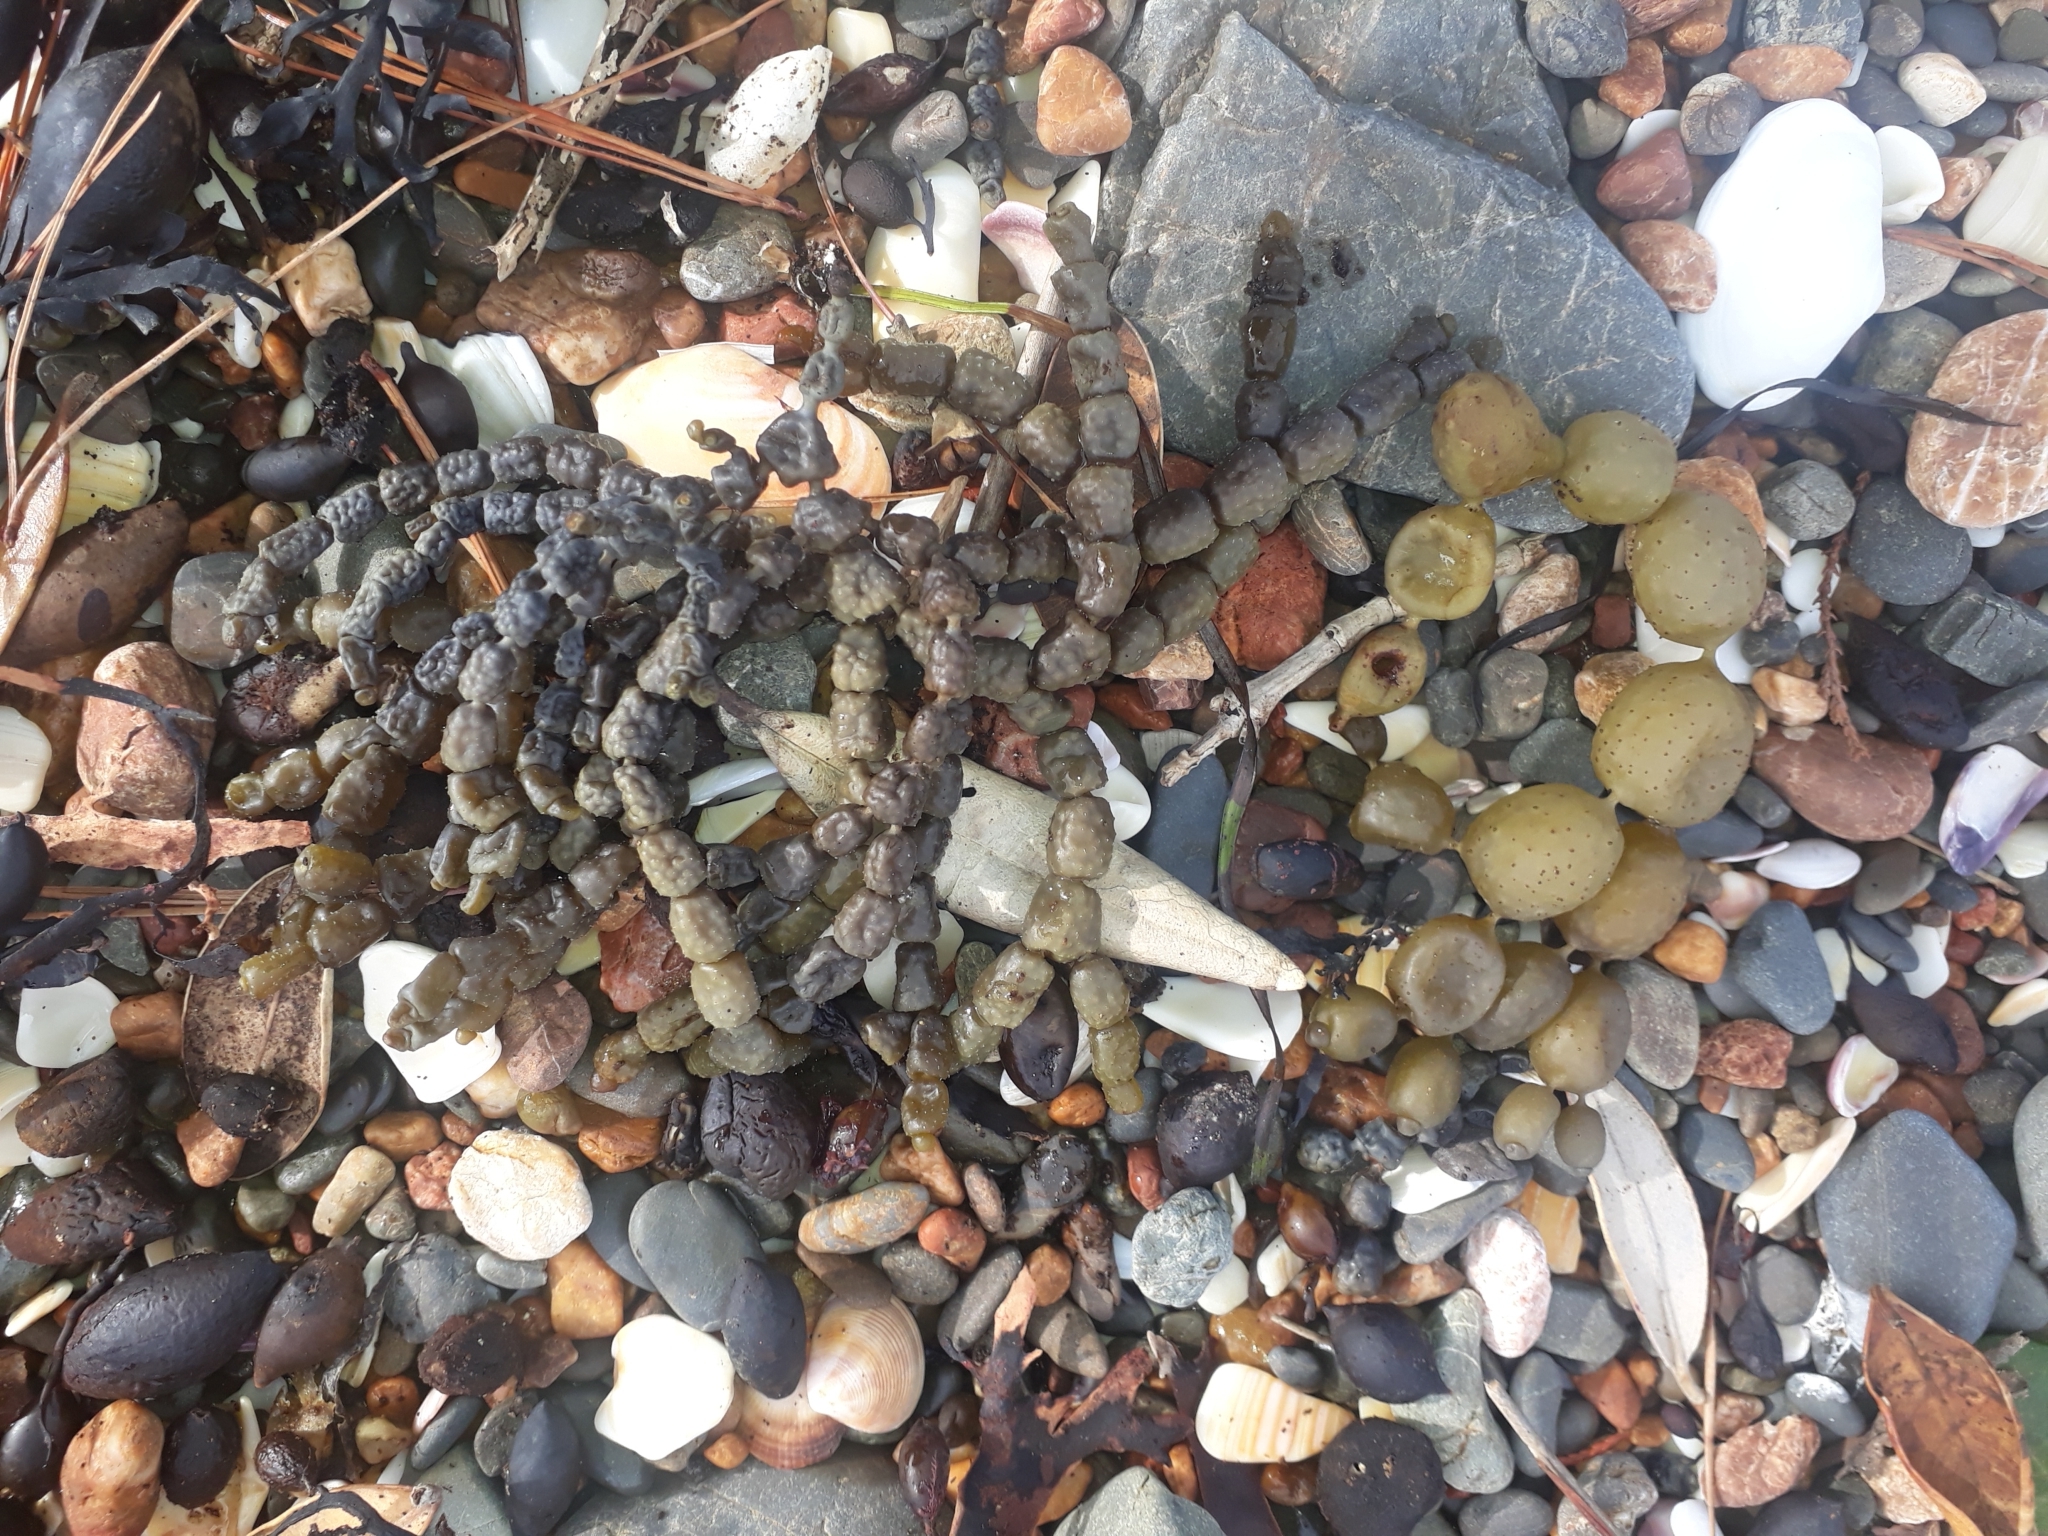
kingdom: Chromista
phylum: Ochrophyta
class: Phaeophyceae
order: Fucales
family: Hormosiraceae
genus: Hormosira
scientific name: Hormosira banksii
